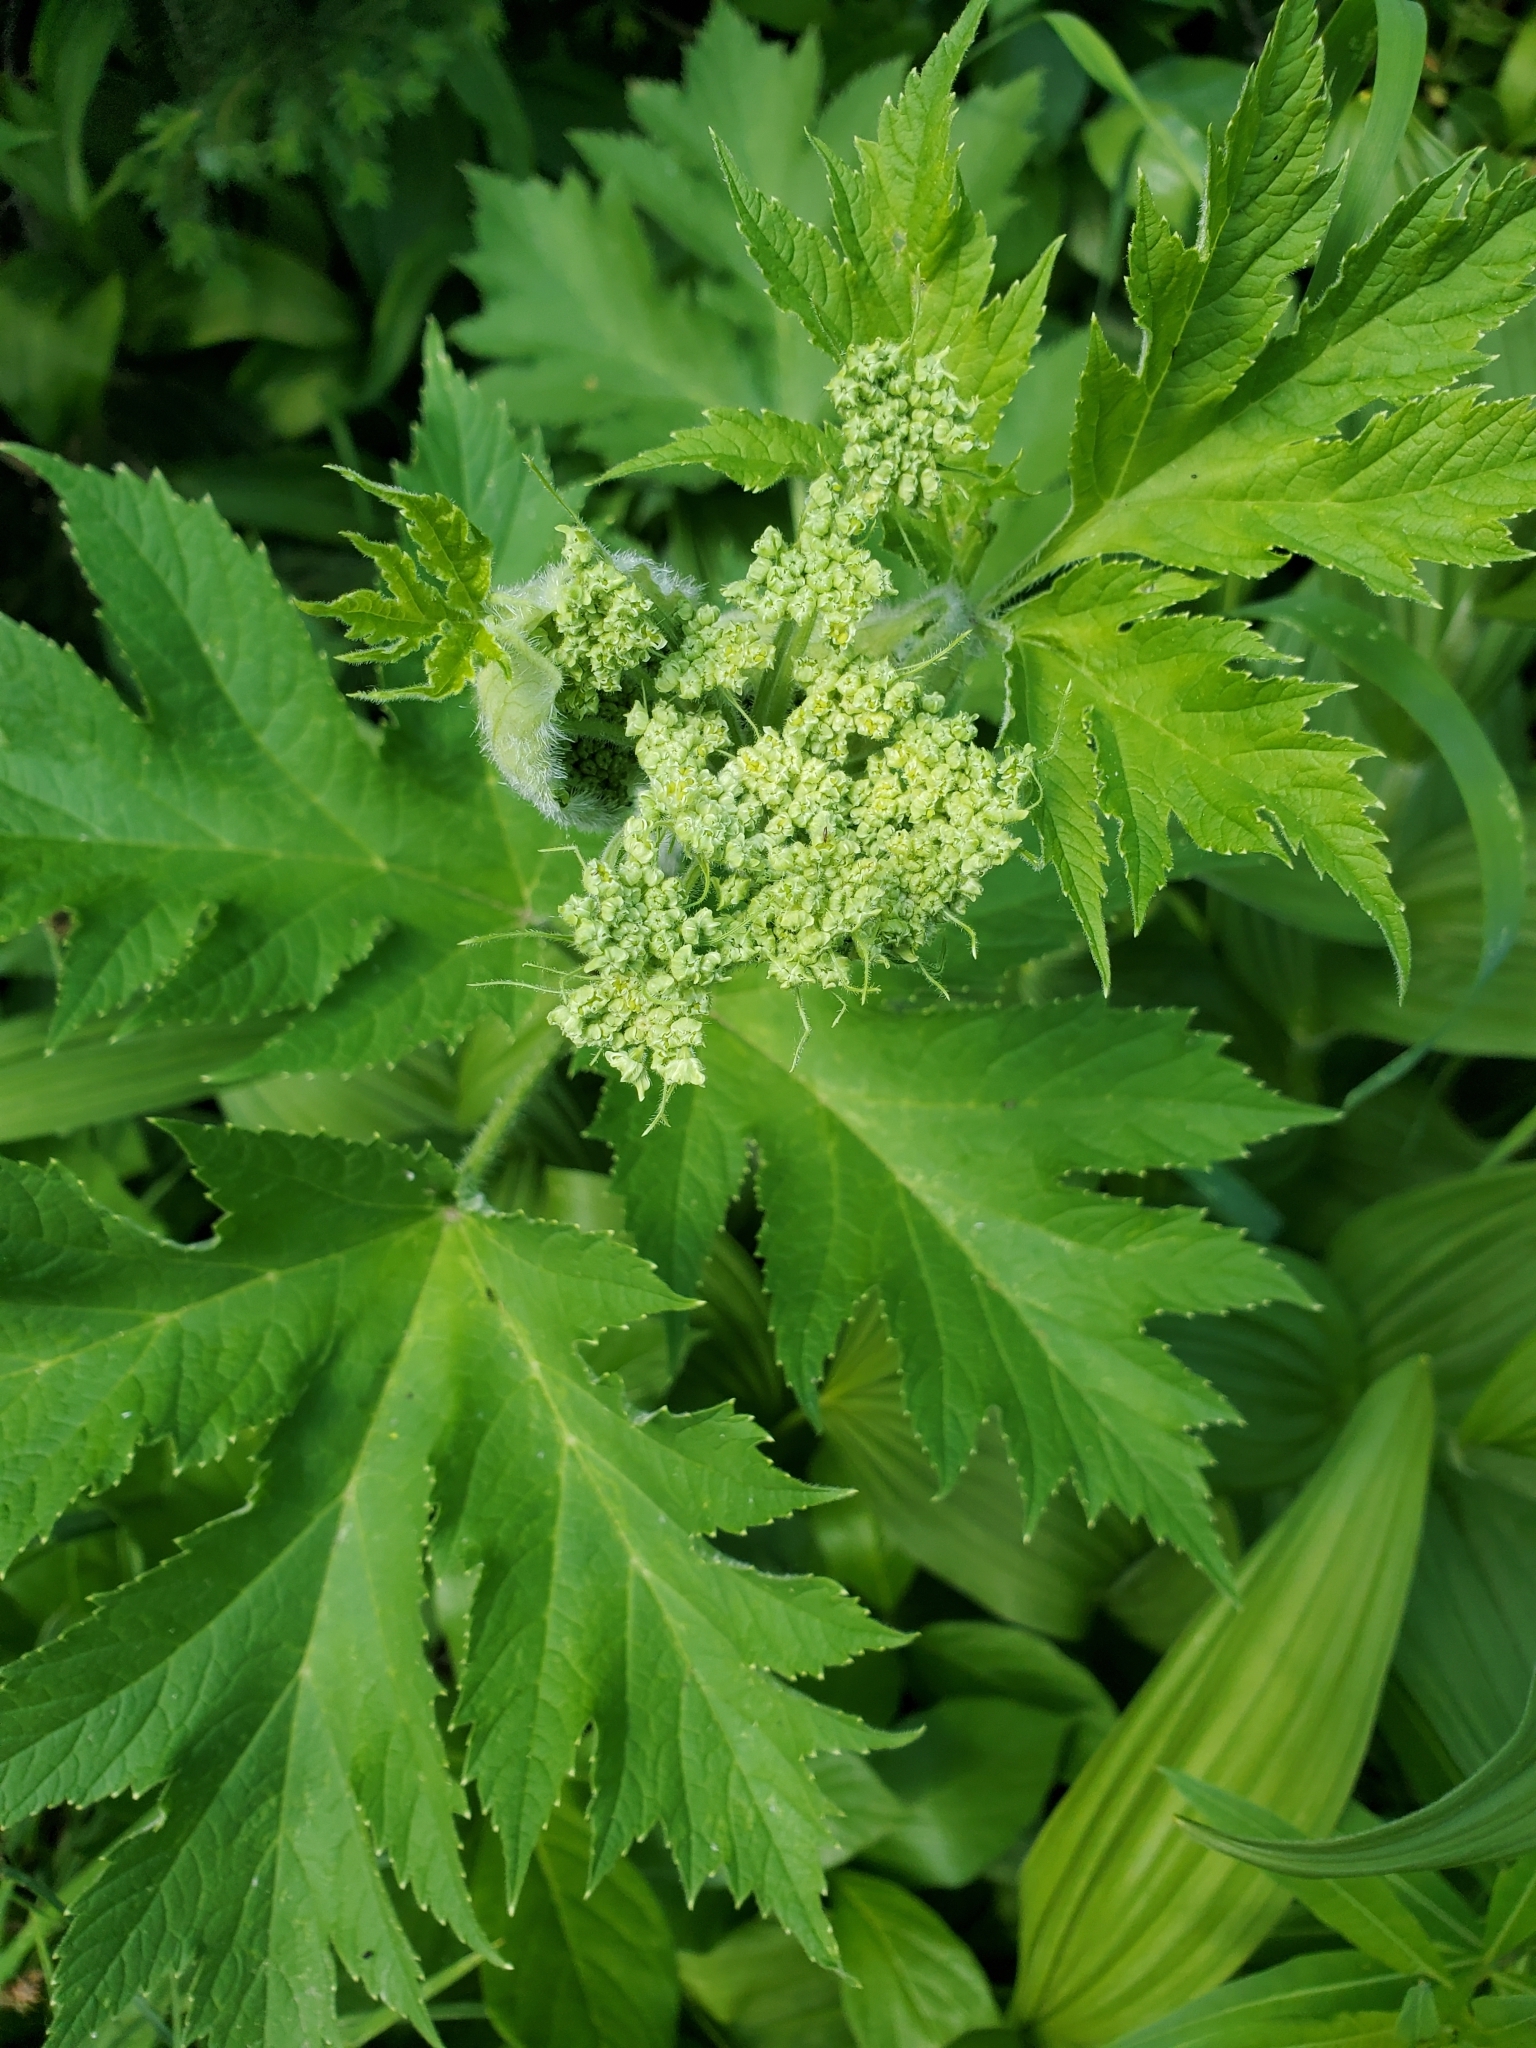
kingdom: Plantae
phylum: Tracheophyta
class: Magnoliopsida
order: Apiales
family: Apiaceae
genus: Heracleum
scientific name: Heracleum maximum
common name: American cow parsnip
